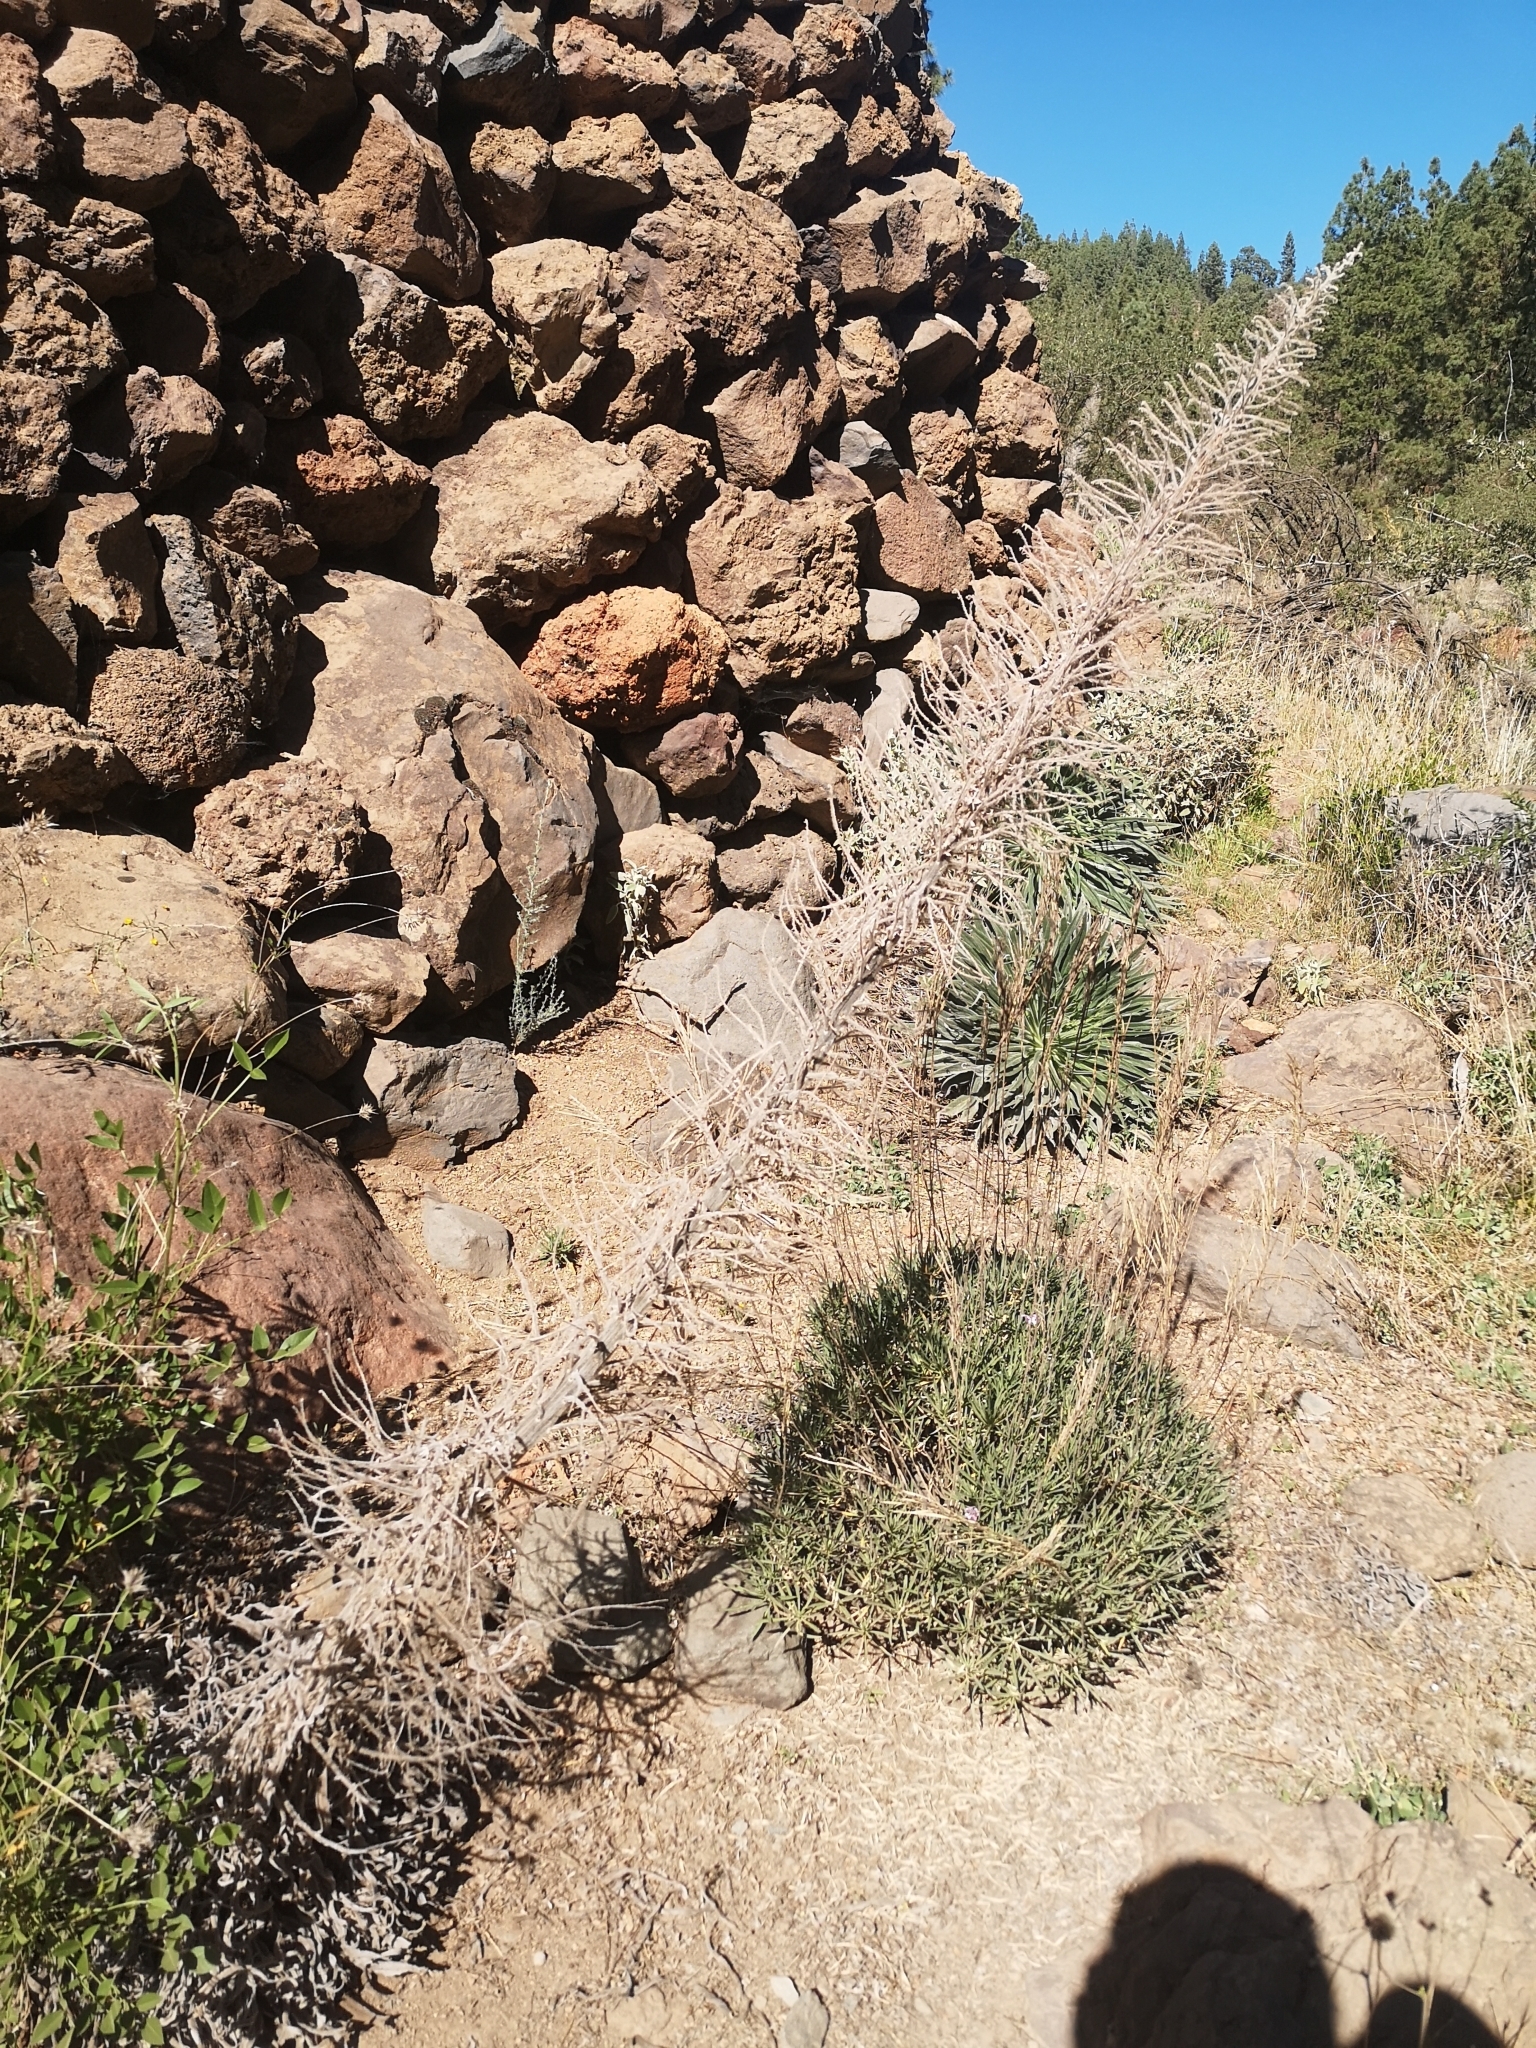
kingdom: Plantae
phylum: Tracheophyta
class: Magnoliopsida
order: Boraginales
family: Boraginaceae
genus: Echium
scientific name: Echium wildpretii
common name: Tower-of-jewels
